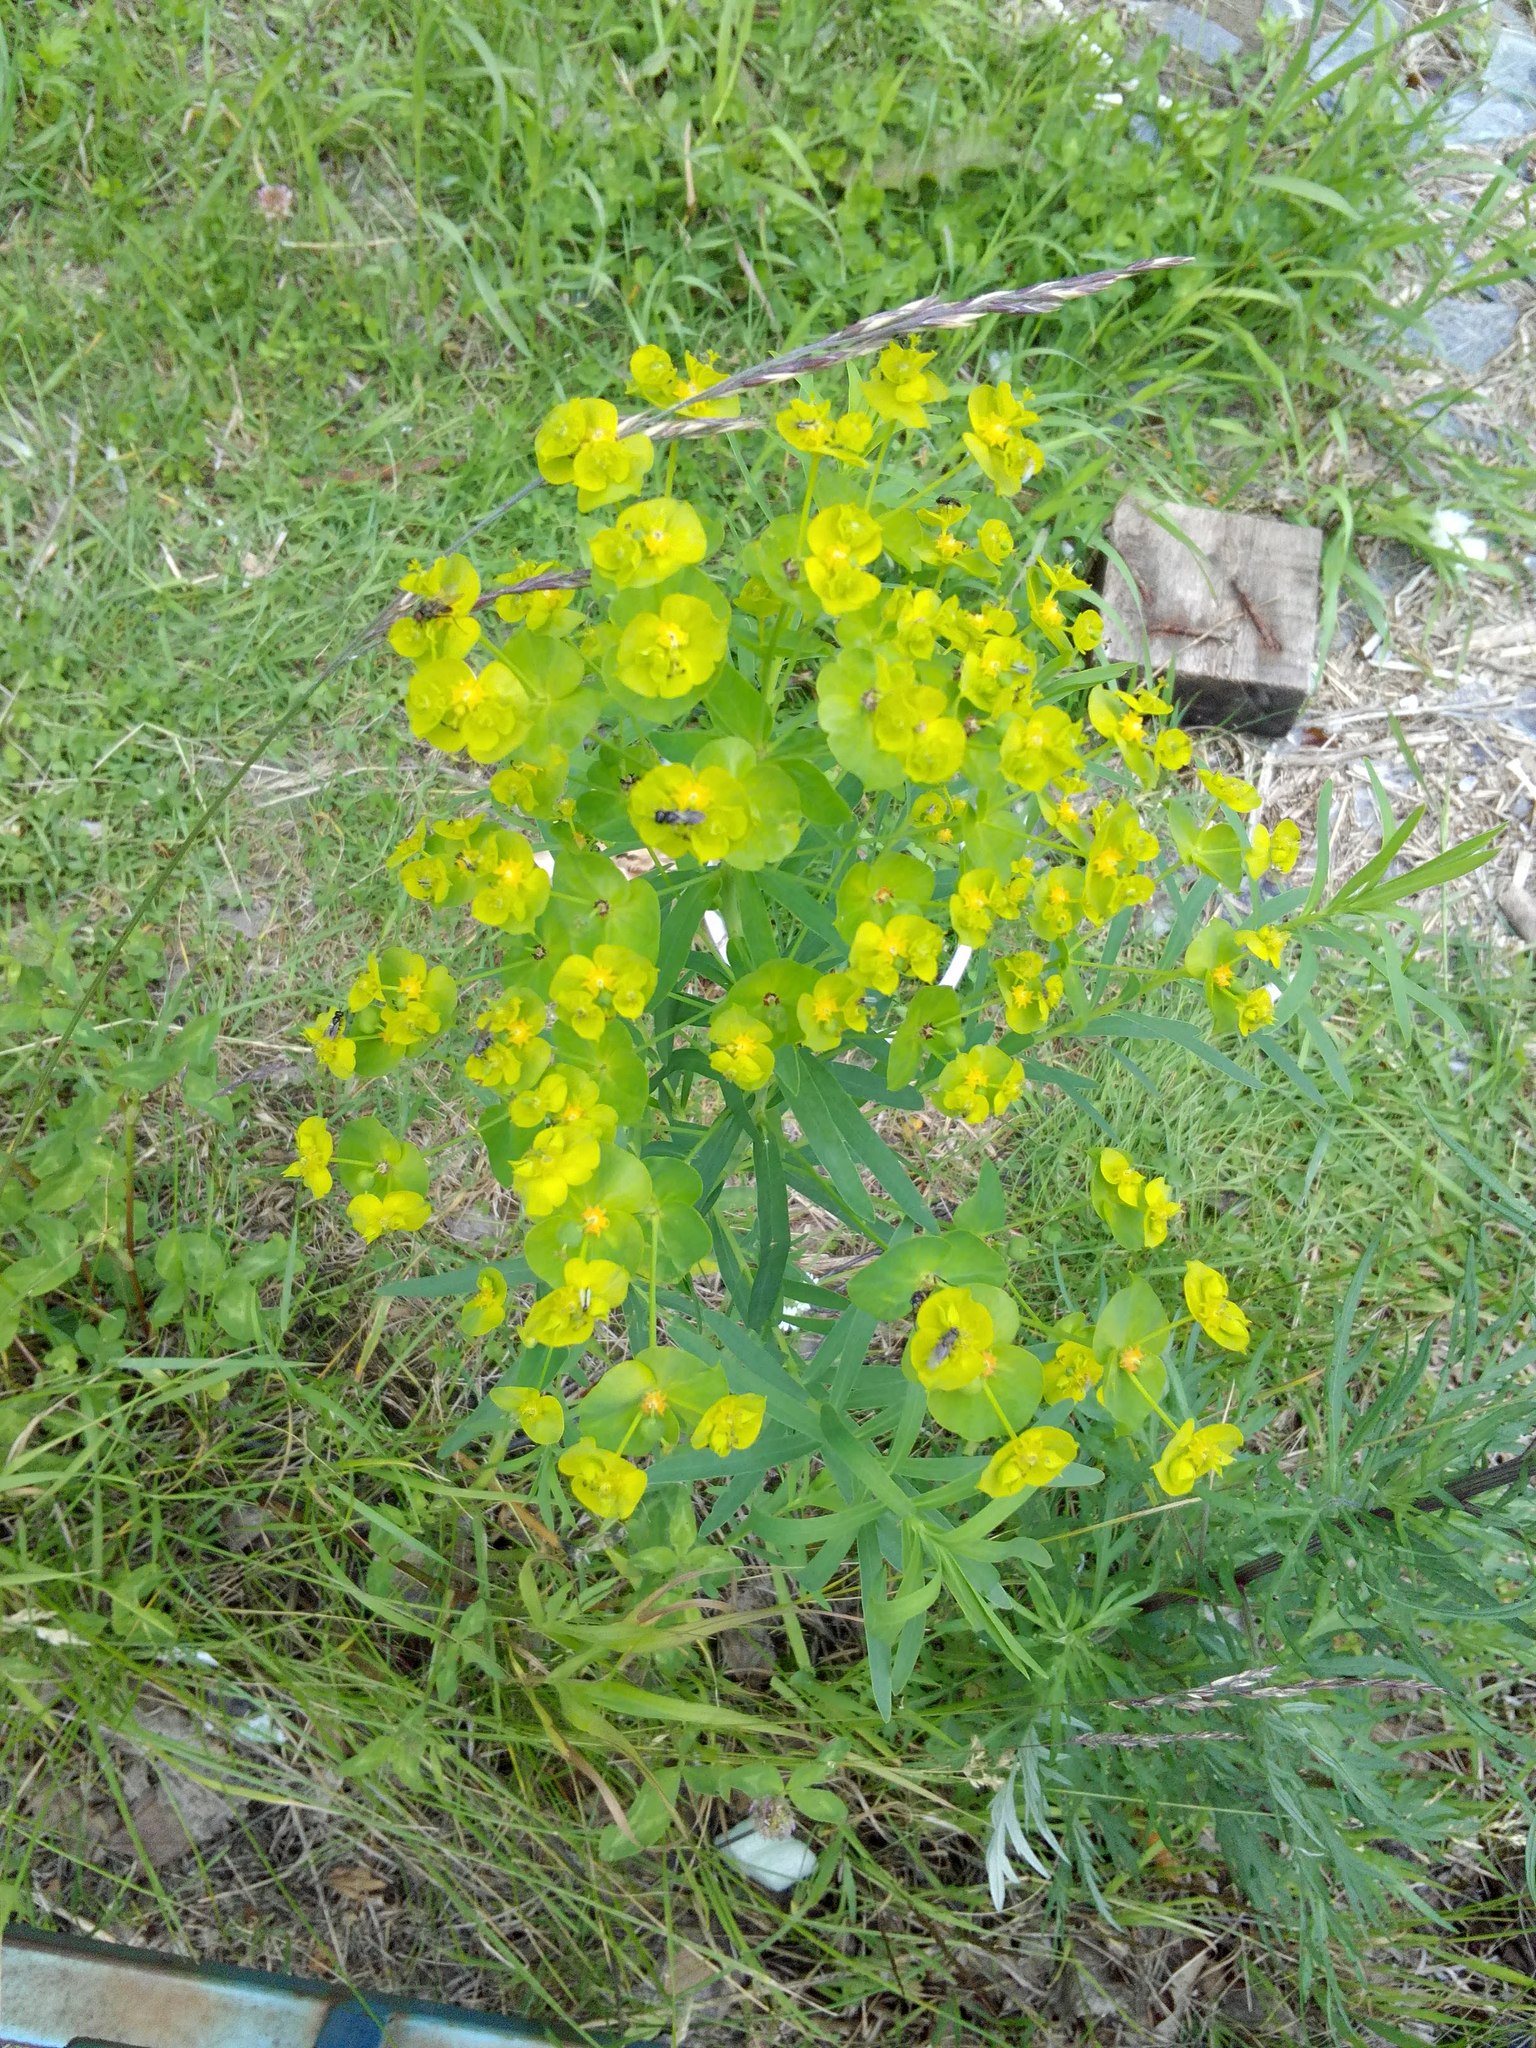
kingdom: Plantae
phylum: Tracheophyta
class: Magnoliopsida
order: Malpighiales
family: Euphorbiaceae
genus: Euphorbia
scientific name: Euphorbia virgata
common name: Leafy spurge
